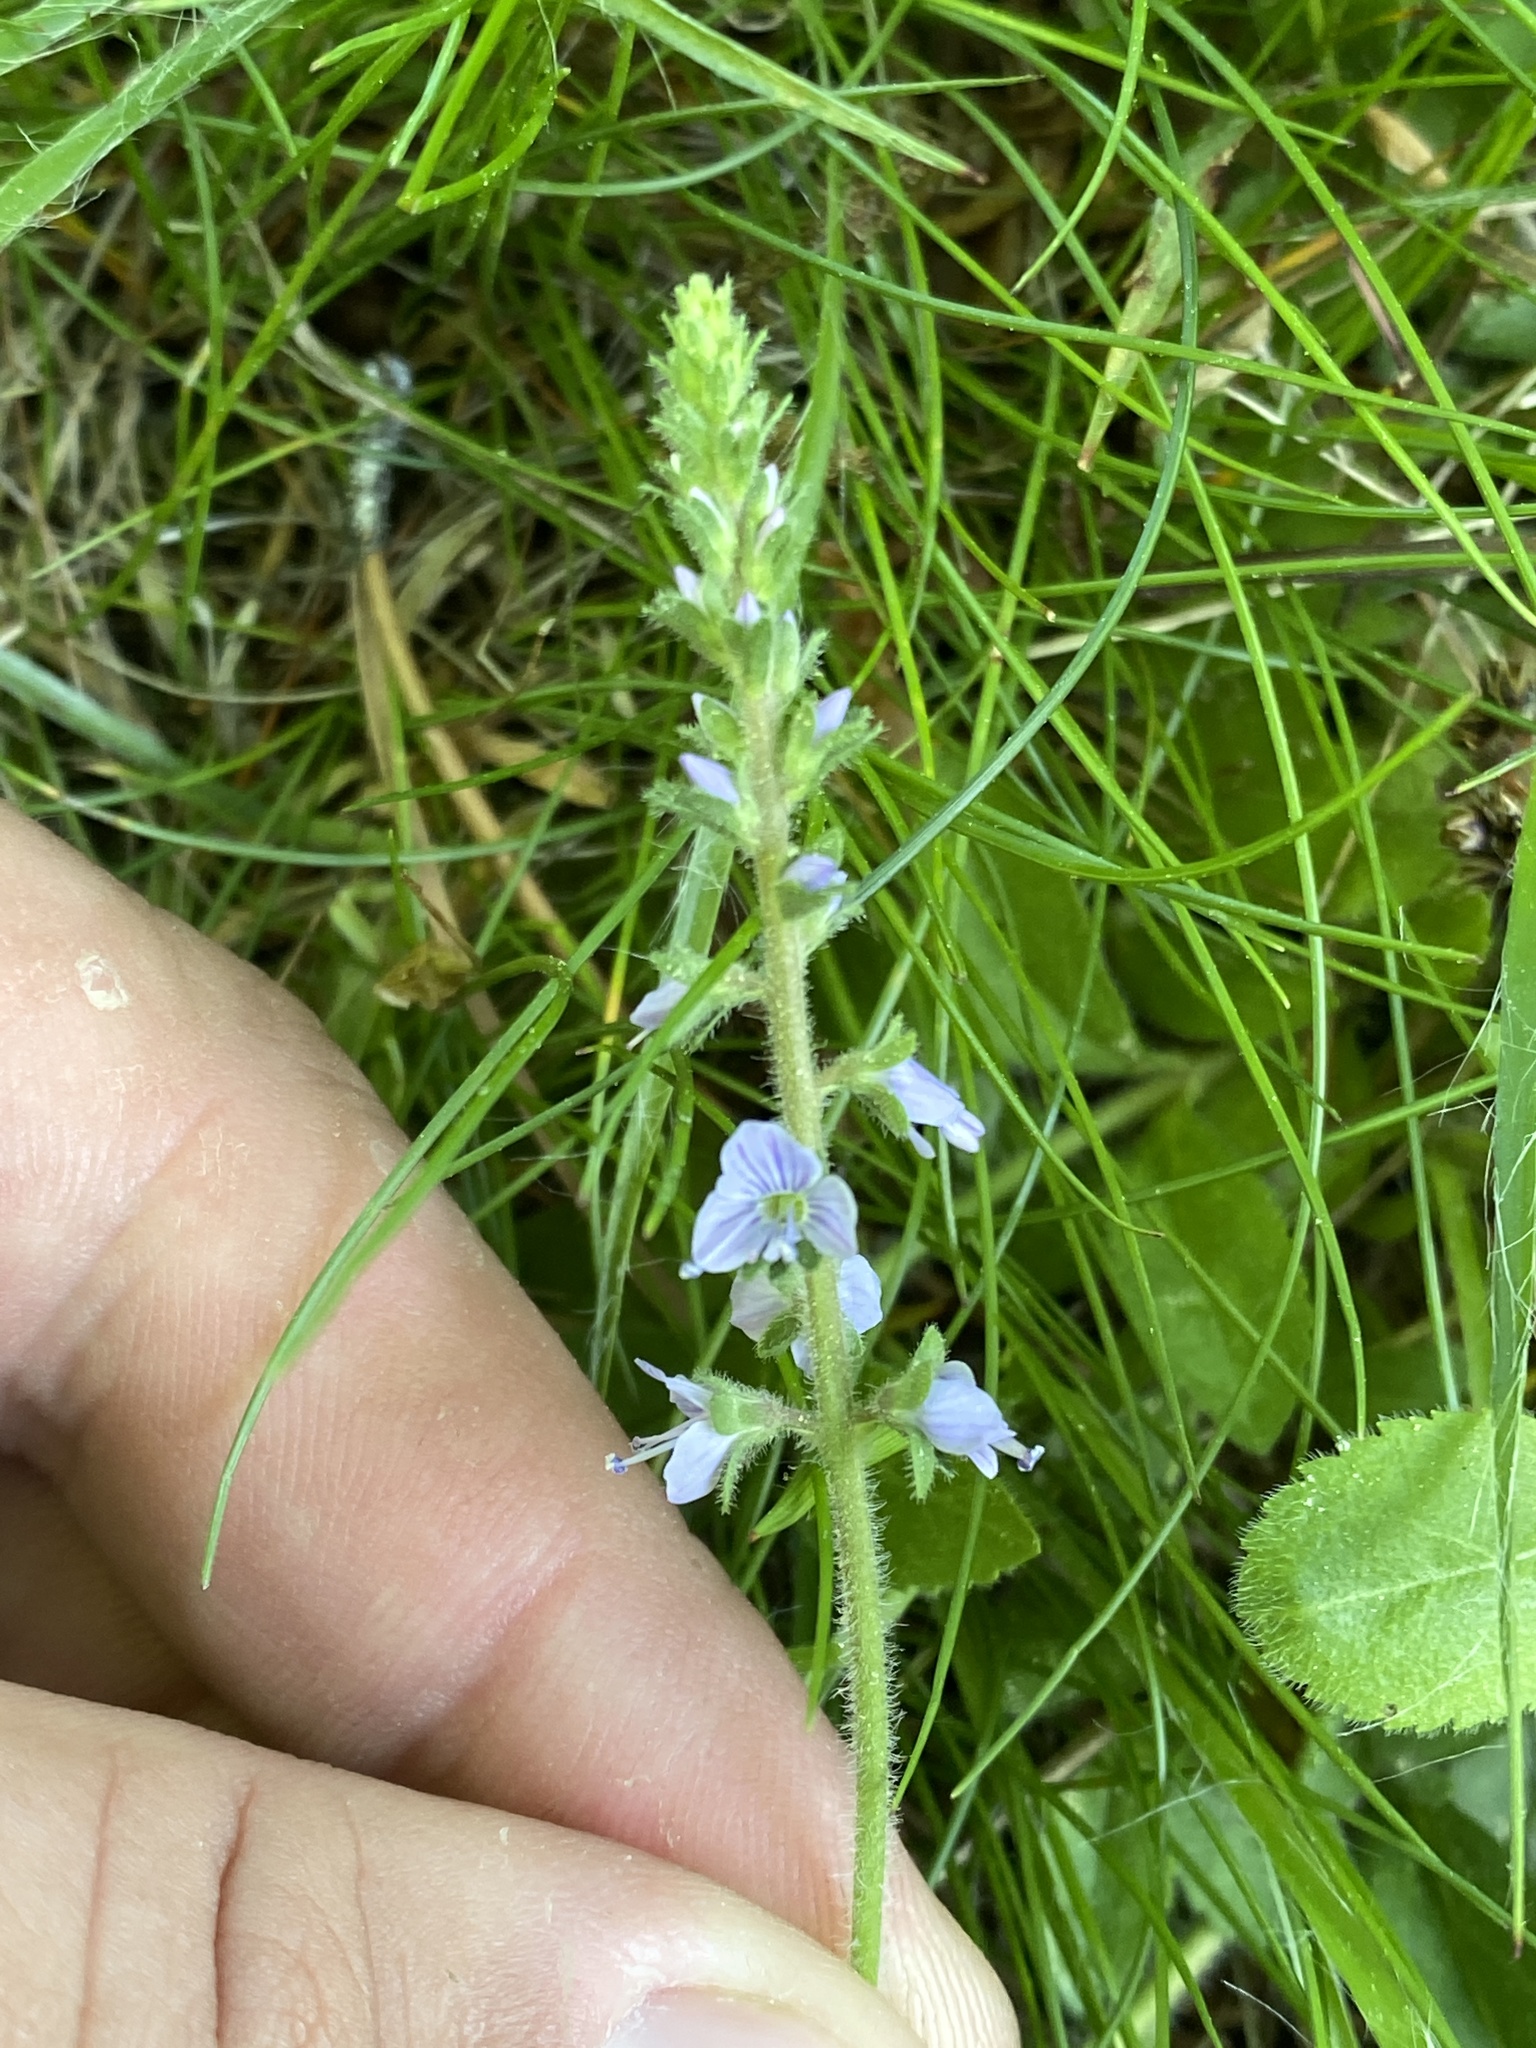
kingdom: Plantae
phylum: Tracheophyta
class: Magnoliopsida
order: Lamiales
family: Plantaginaceae
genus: Veronica
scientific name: Veronica officinalis
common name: Common speedwell
